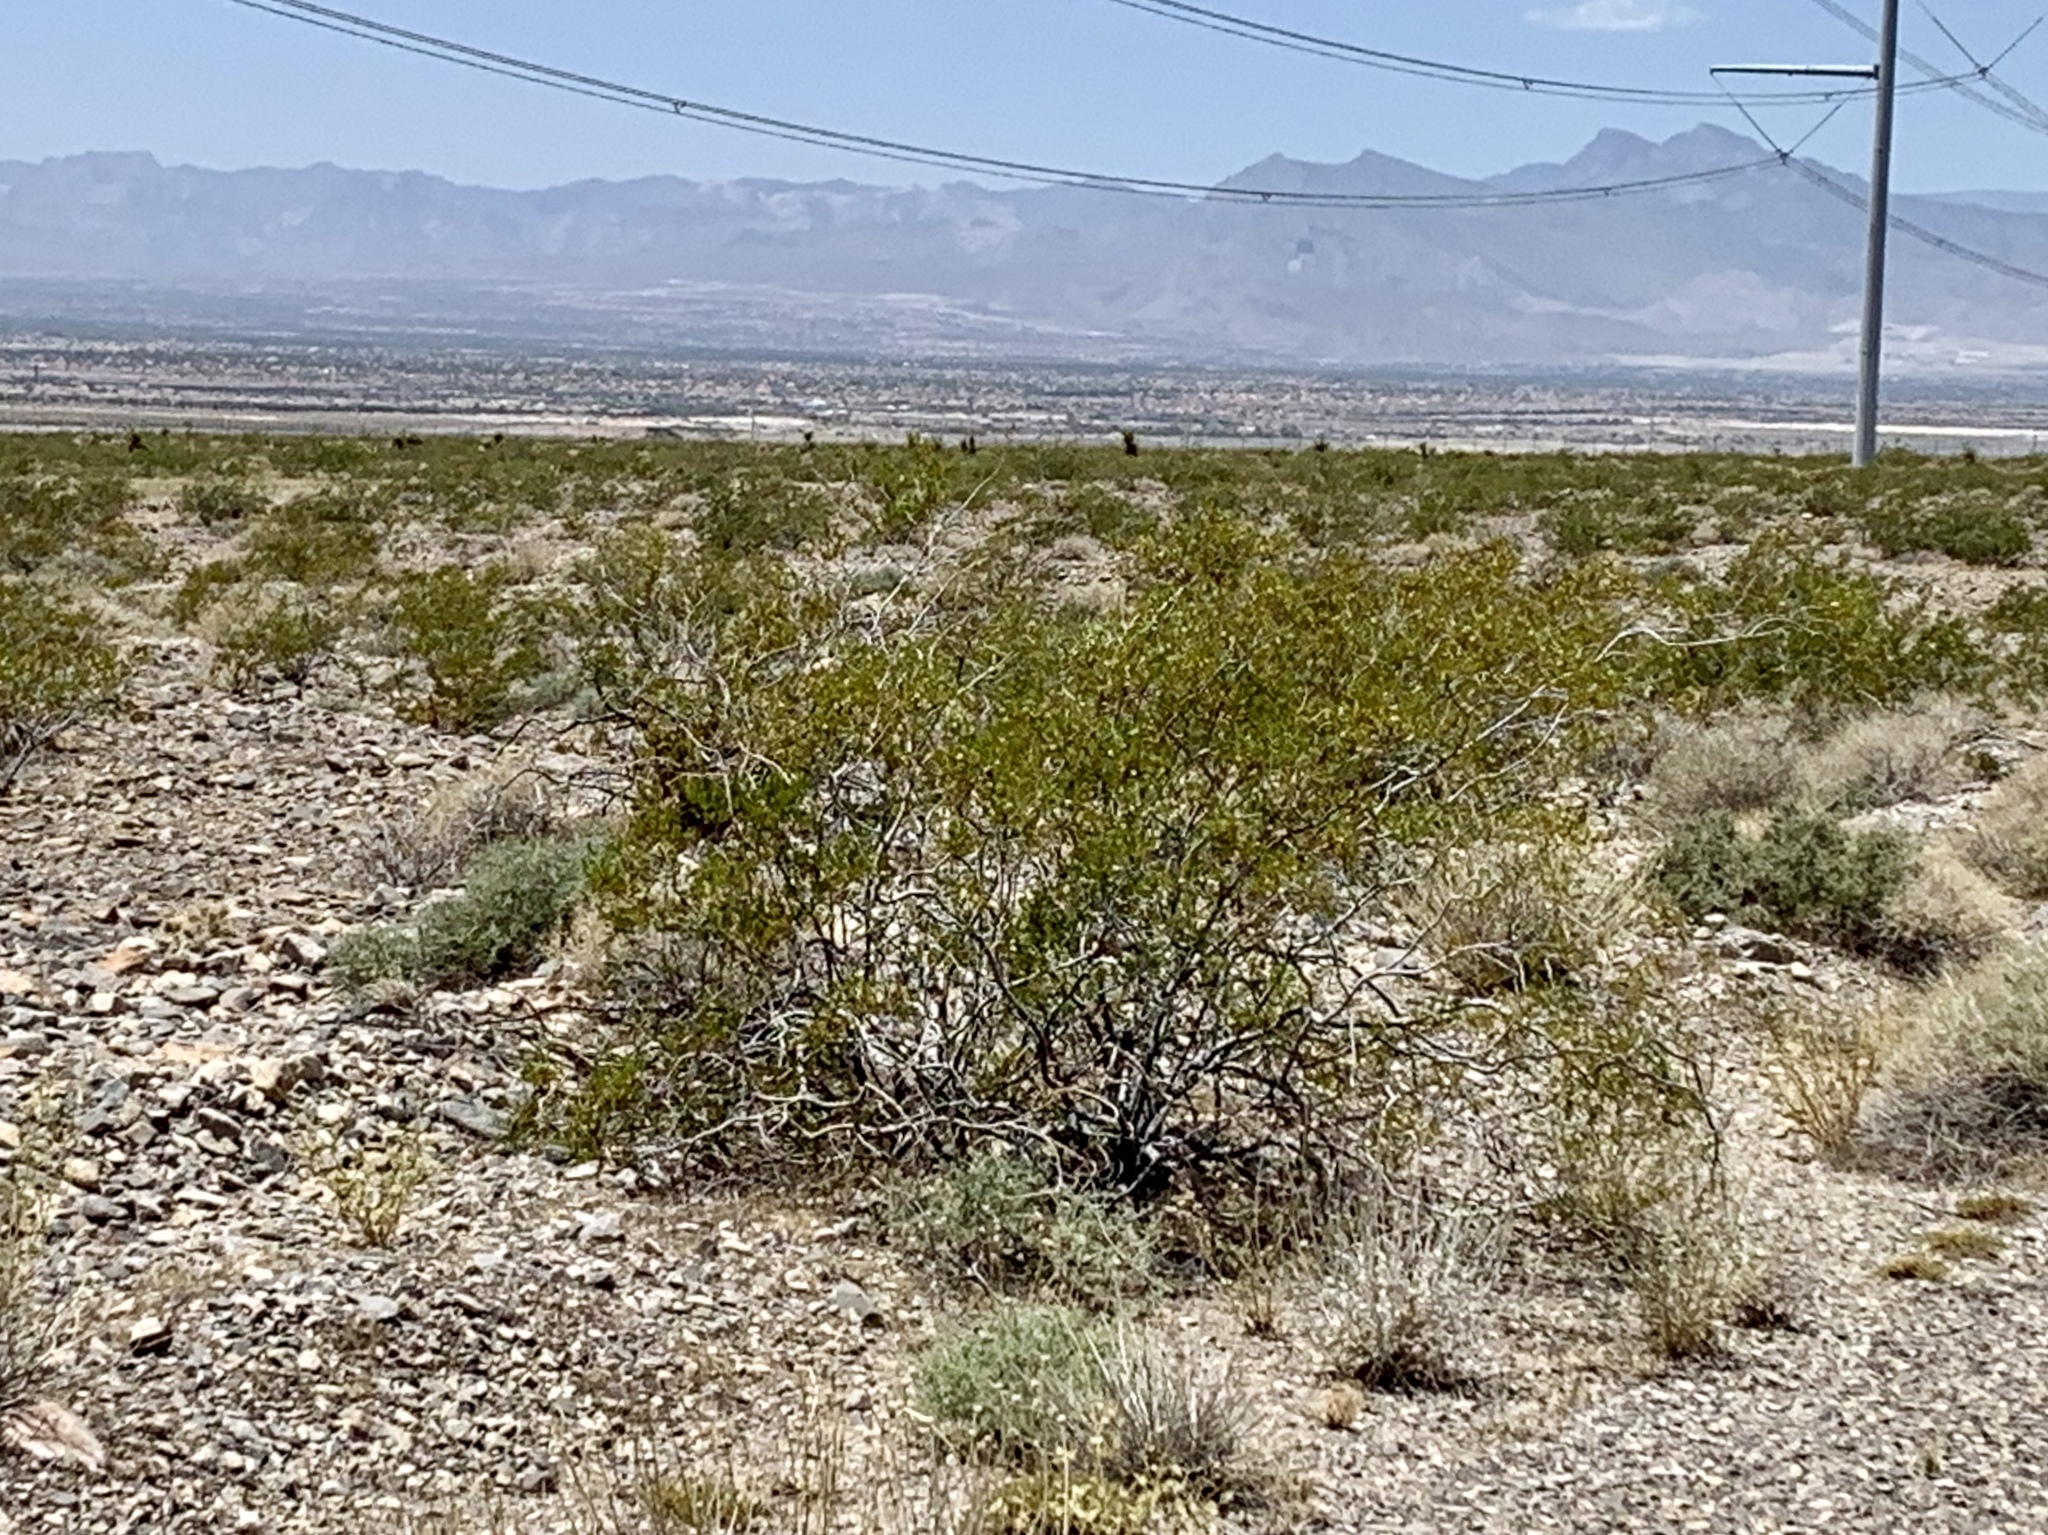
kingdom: Plantae
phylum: Tracheophyta
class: Magnoliopsida
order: Zygophyllales
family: Zygophyllaceae
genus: Larrea
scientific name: Larrea tridentata
